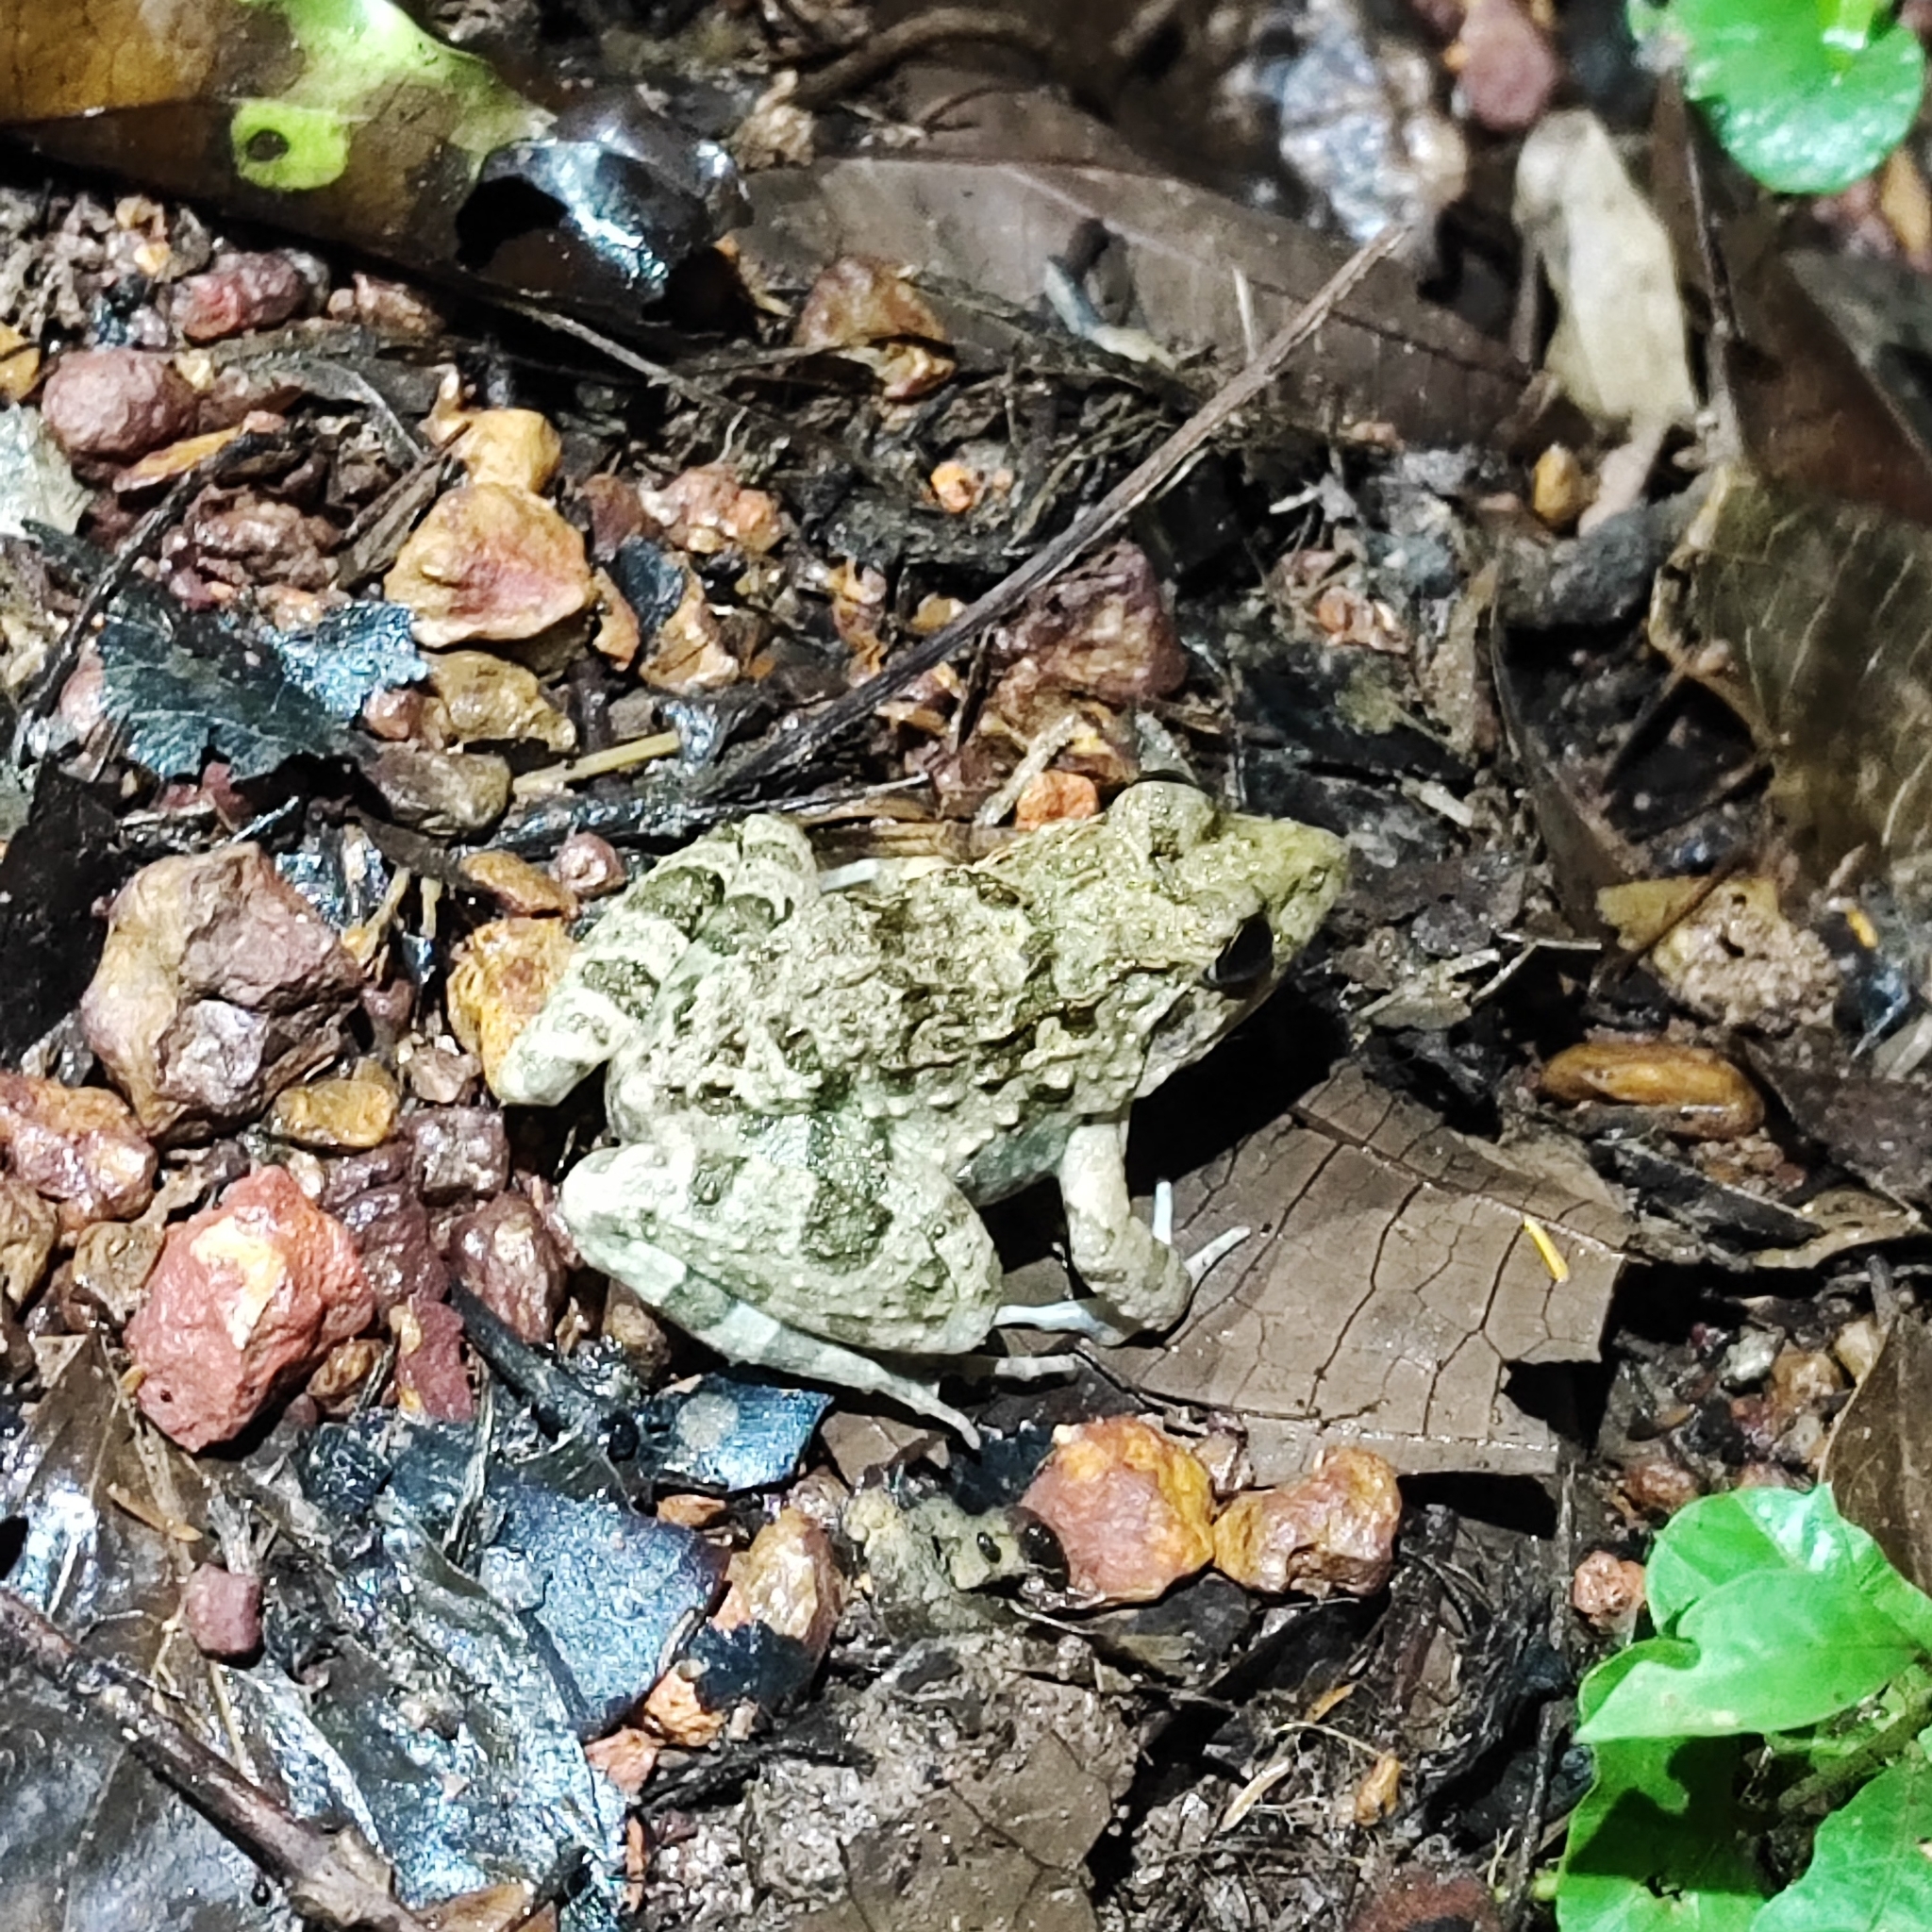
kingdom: Animalia
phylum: Chordata
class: Amphibia
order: Anura
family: Dicroglossidae
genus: Fejervarya
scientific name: Fejervarya limnocharis
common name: Asian grass frog/common pond frog/field frog/grass frog/indian rice frog
